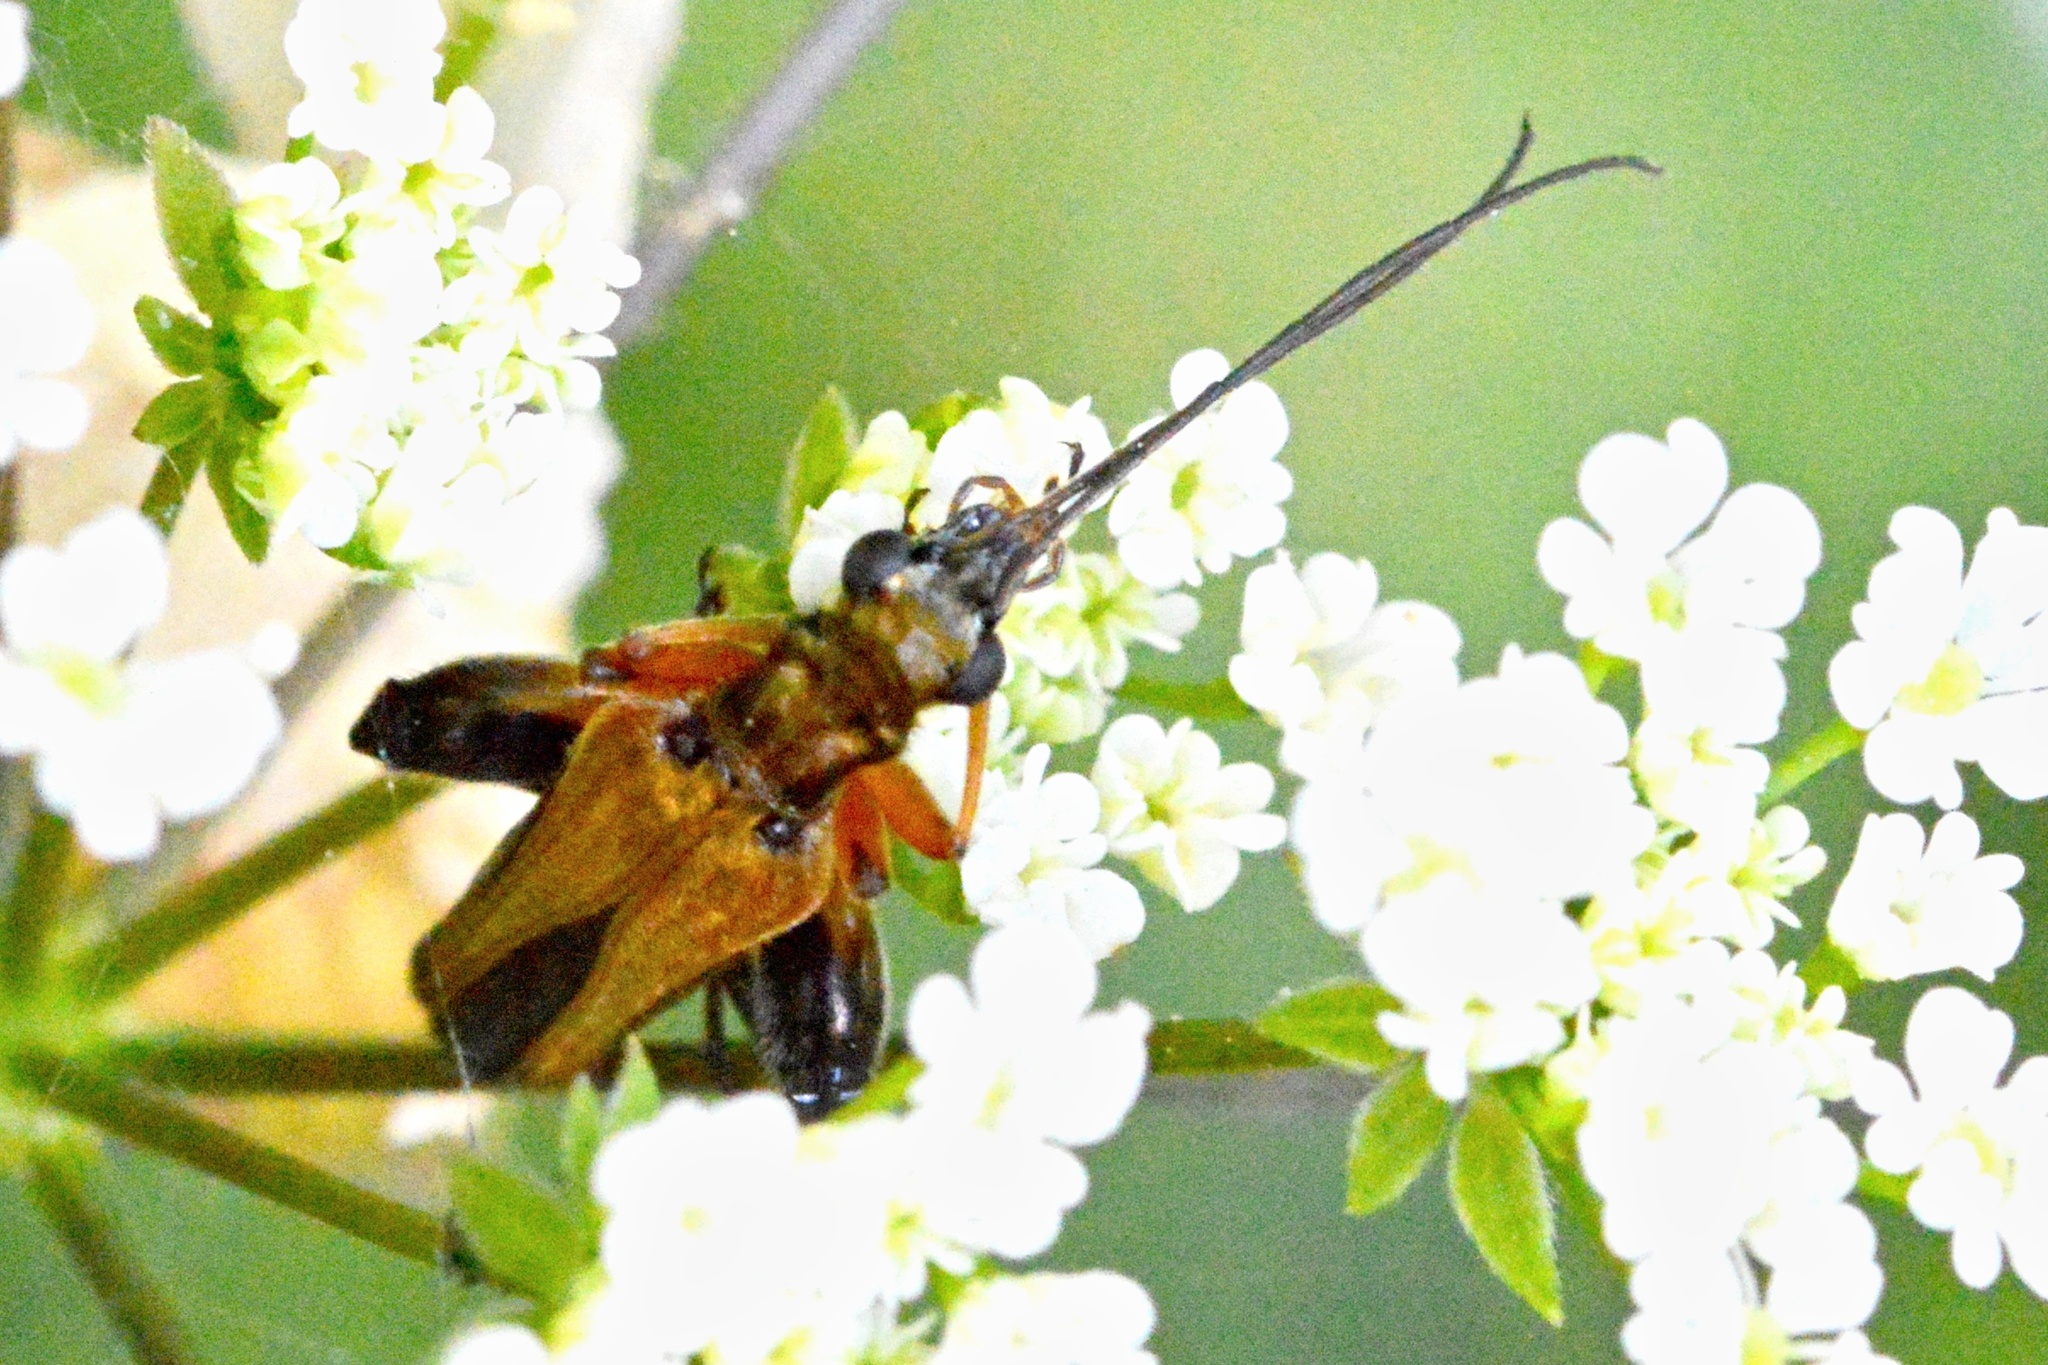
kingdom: Animalia
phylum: Arthropoda
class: Insecta
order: Coleoptera
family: Oedemeridae
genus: Oedemera
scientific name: Oedemera podagrariae
